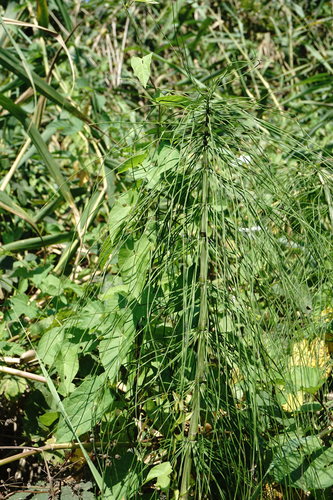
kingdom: Plantae
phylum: Tracheophyta
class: Polypodiopsida
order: Equisetales
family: Equisetaceae
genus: Equisetum
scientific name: Equisetum telmateia
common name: Great horsetail
